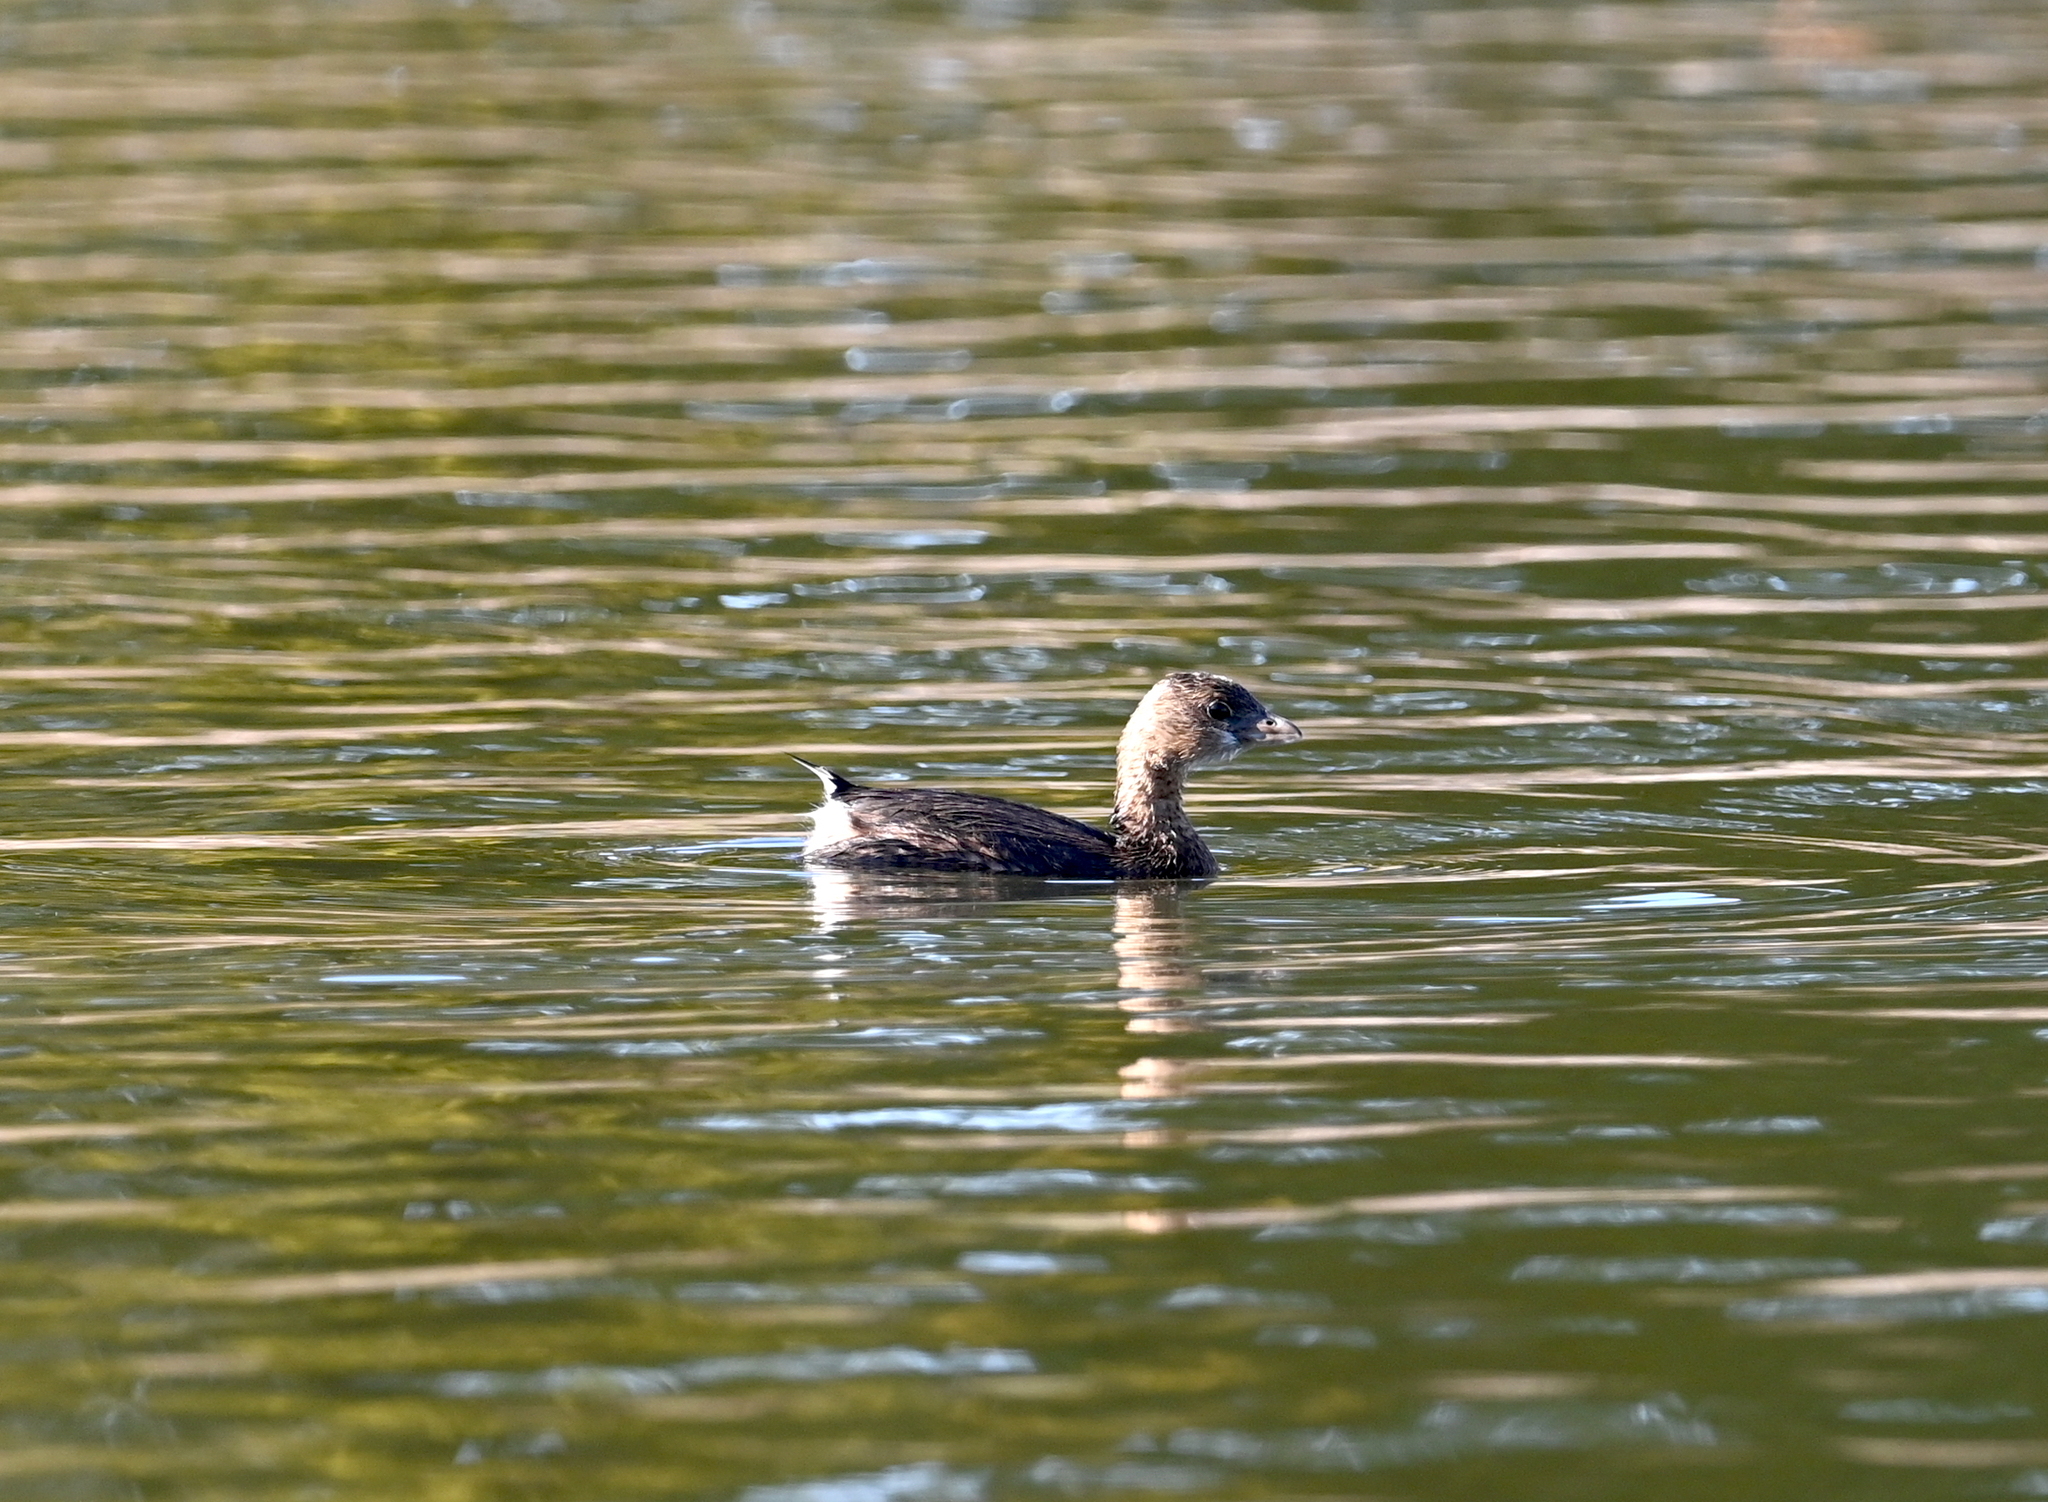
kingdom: Animalia
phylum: Chordata
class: Aves
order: Podicipediformes
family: Podicipedidae
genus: Podilymbus
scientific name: Podilymbus podiceps
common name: Pied-billed grebe
